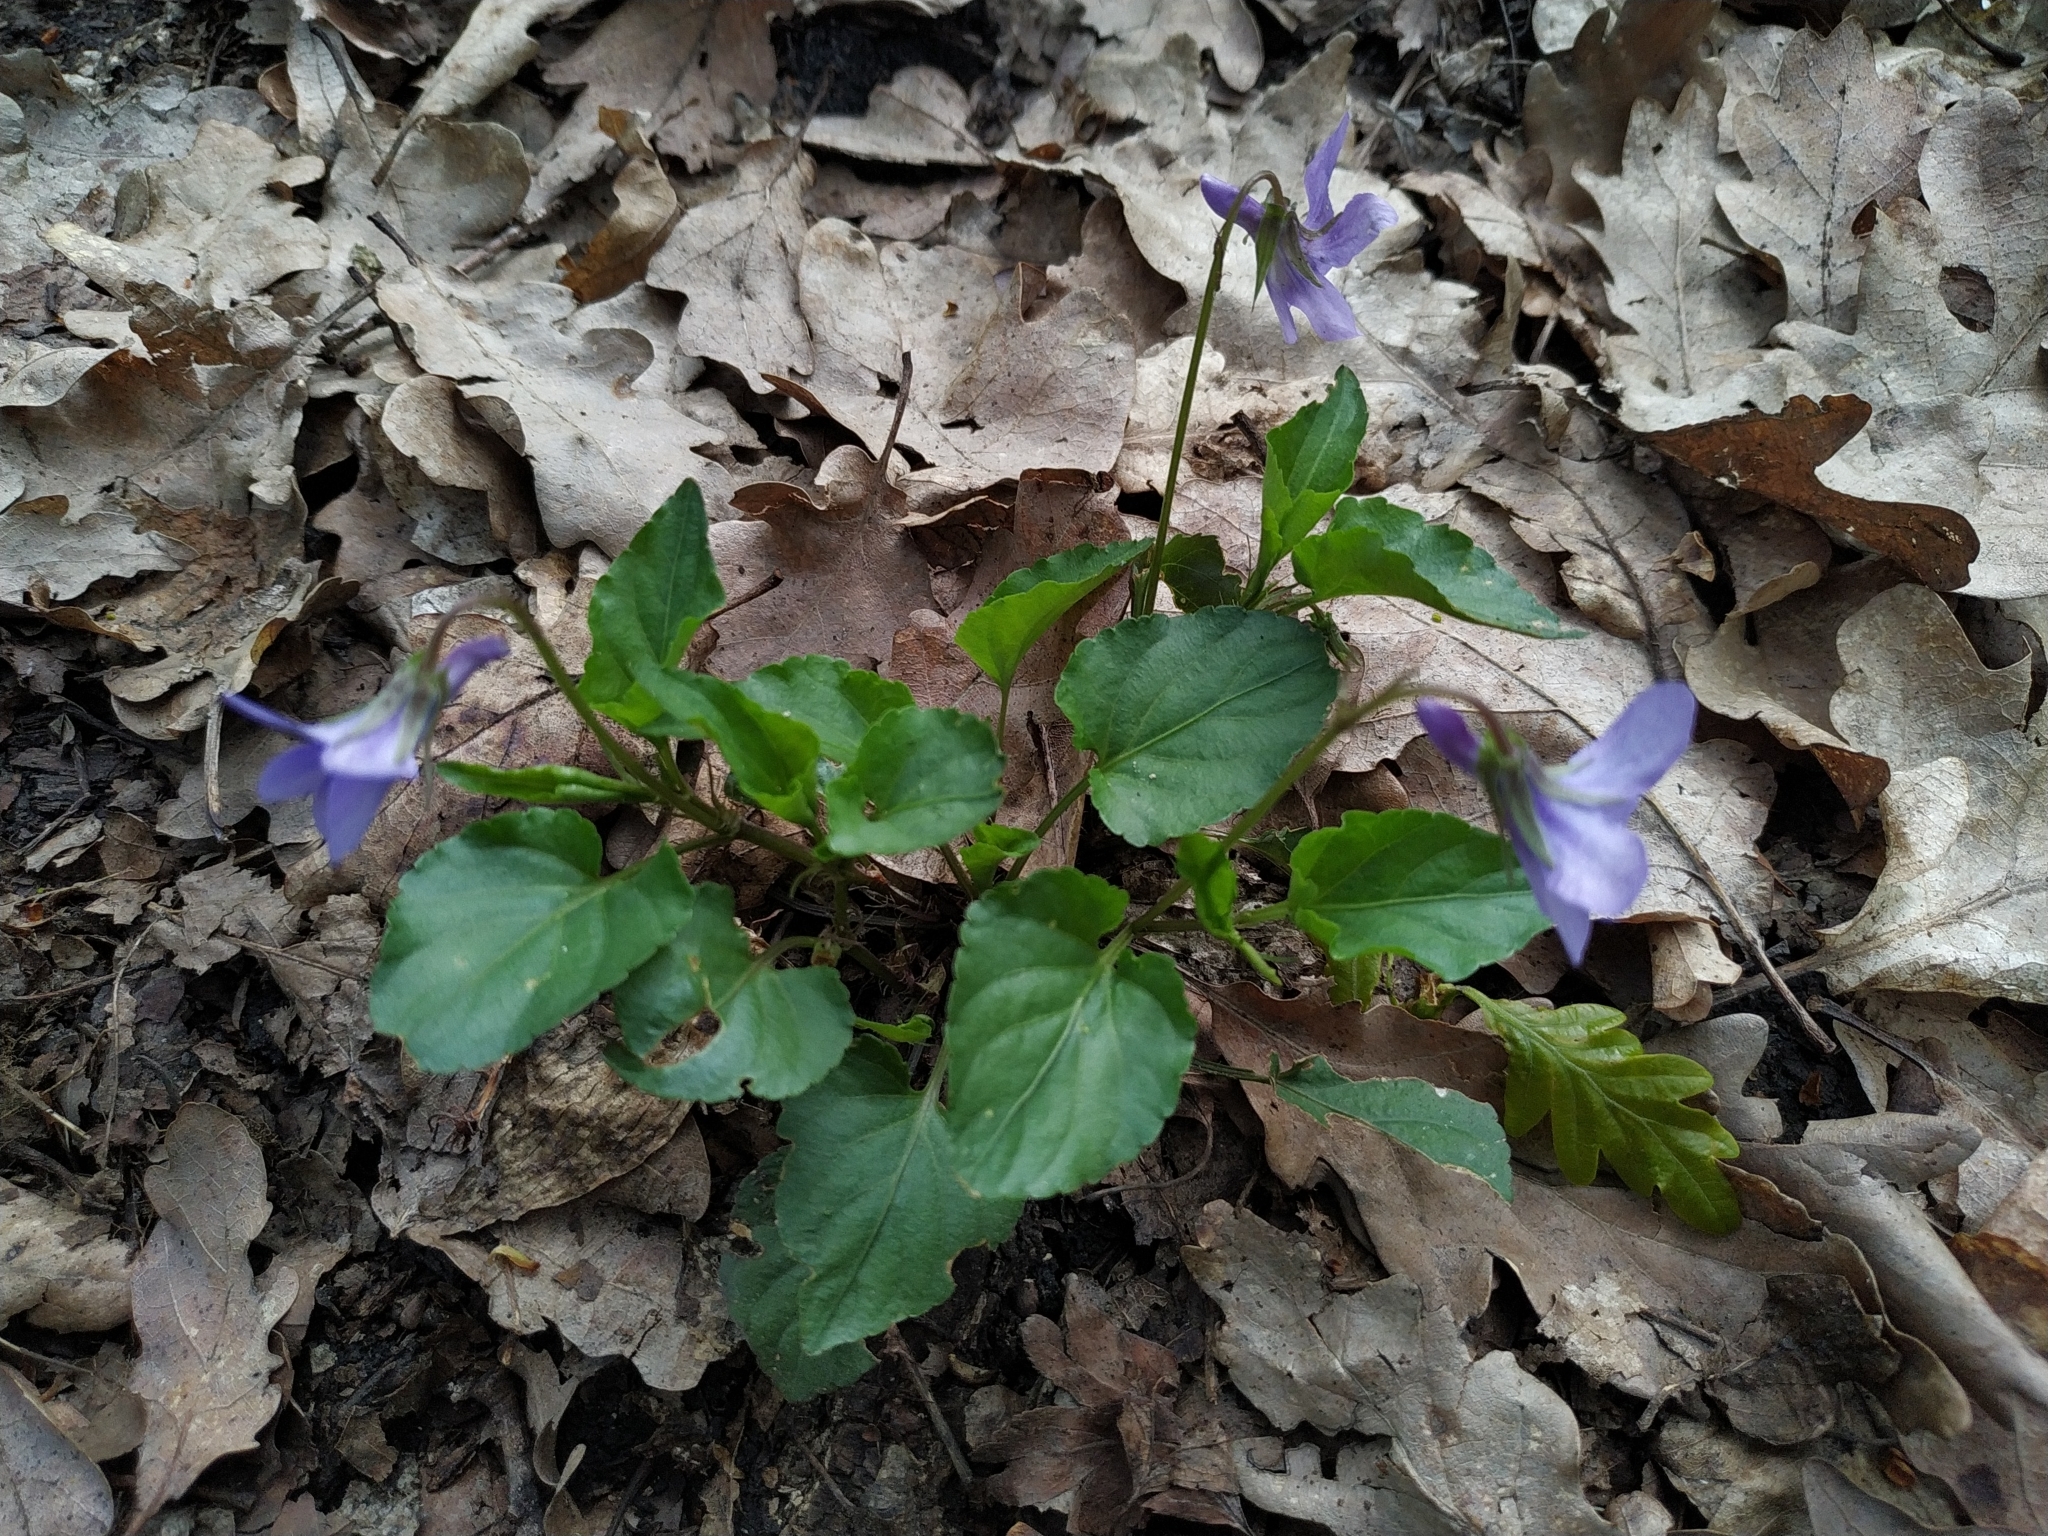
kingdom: Plantae
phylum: Tracheophyta
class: Magnoliopsida
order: Malpighiales
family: Violaceae
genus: Viola
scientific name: Viola reichenbachiana
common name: Early dog-violet
